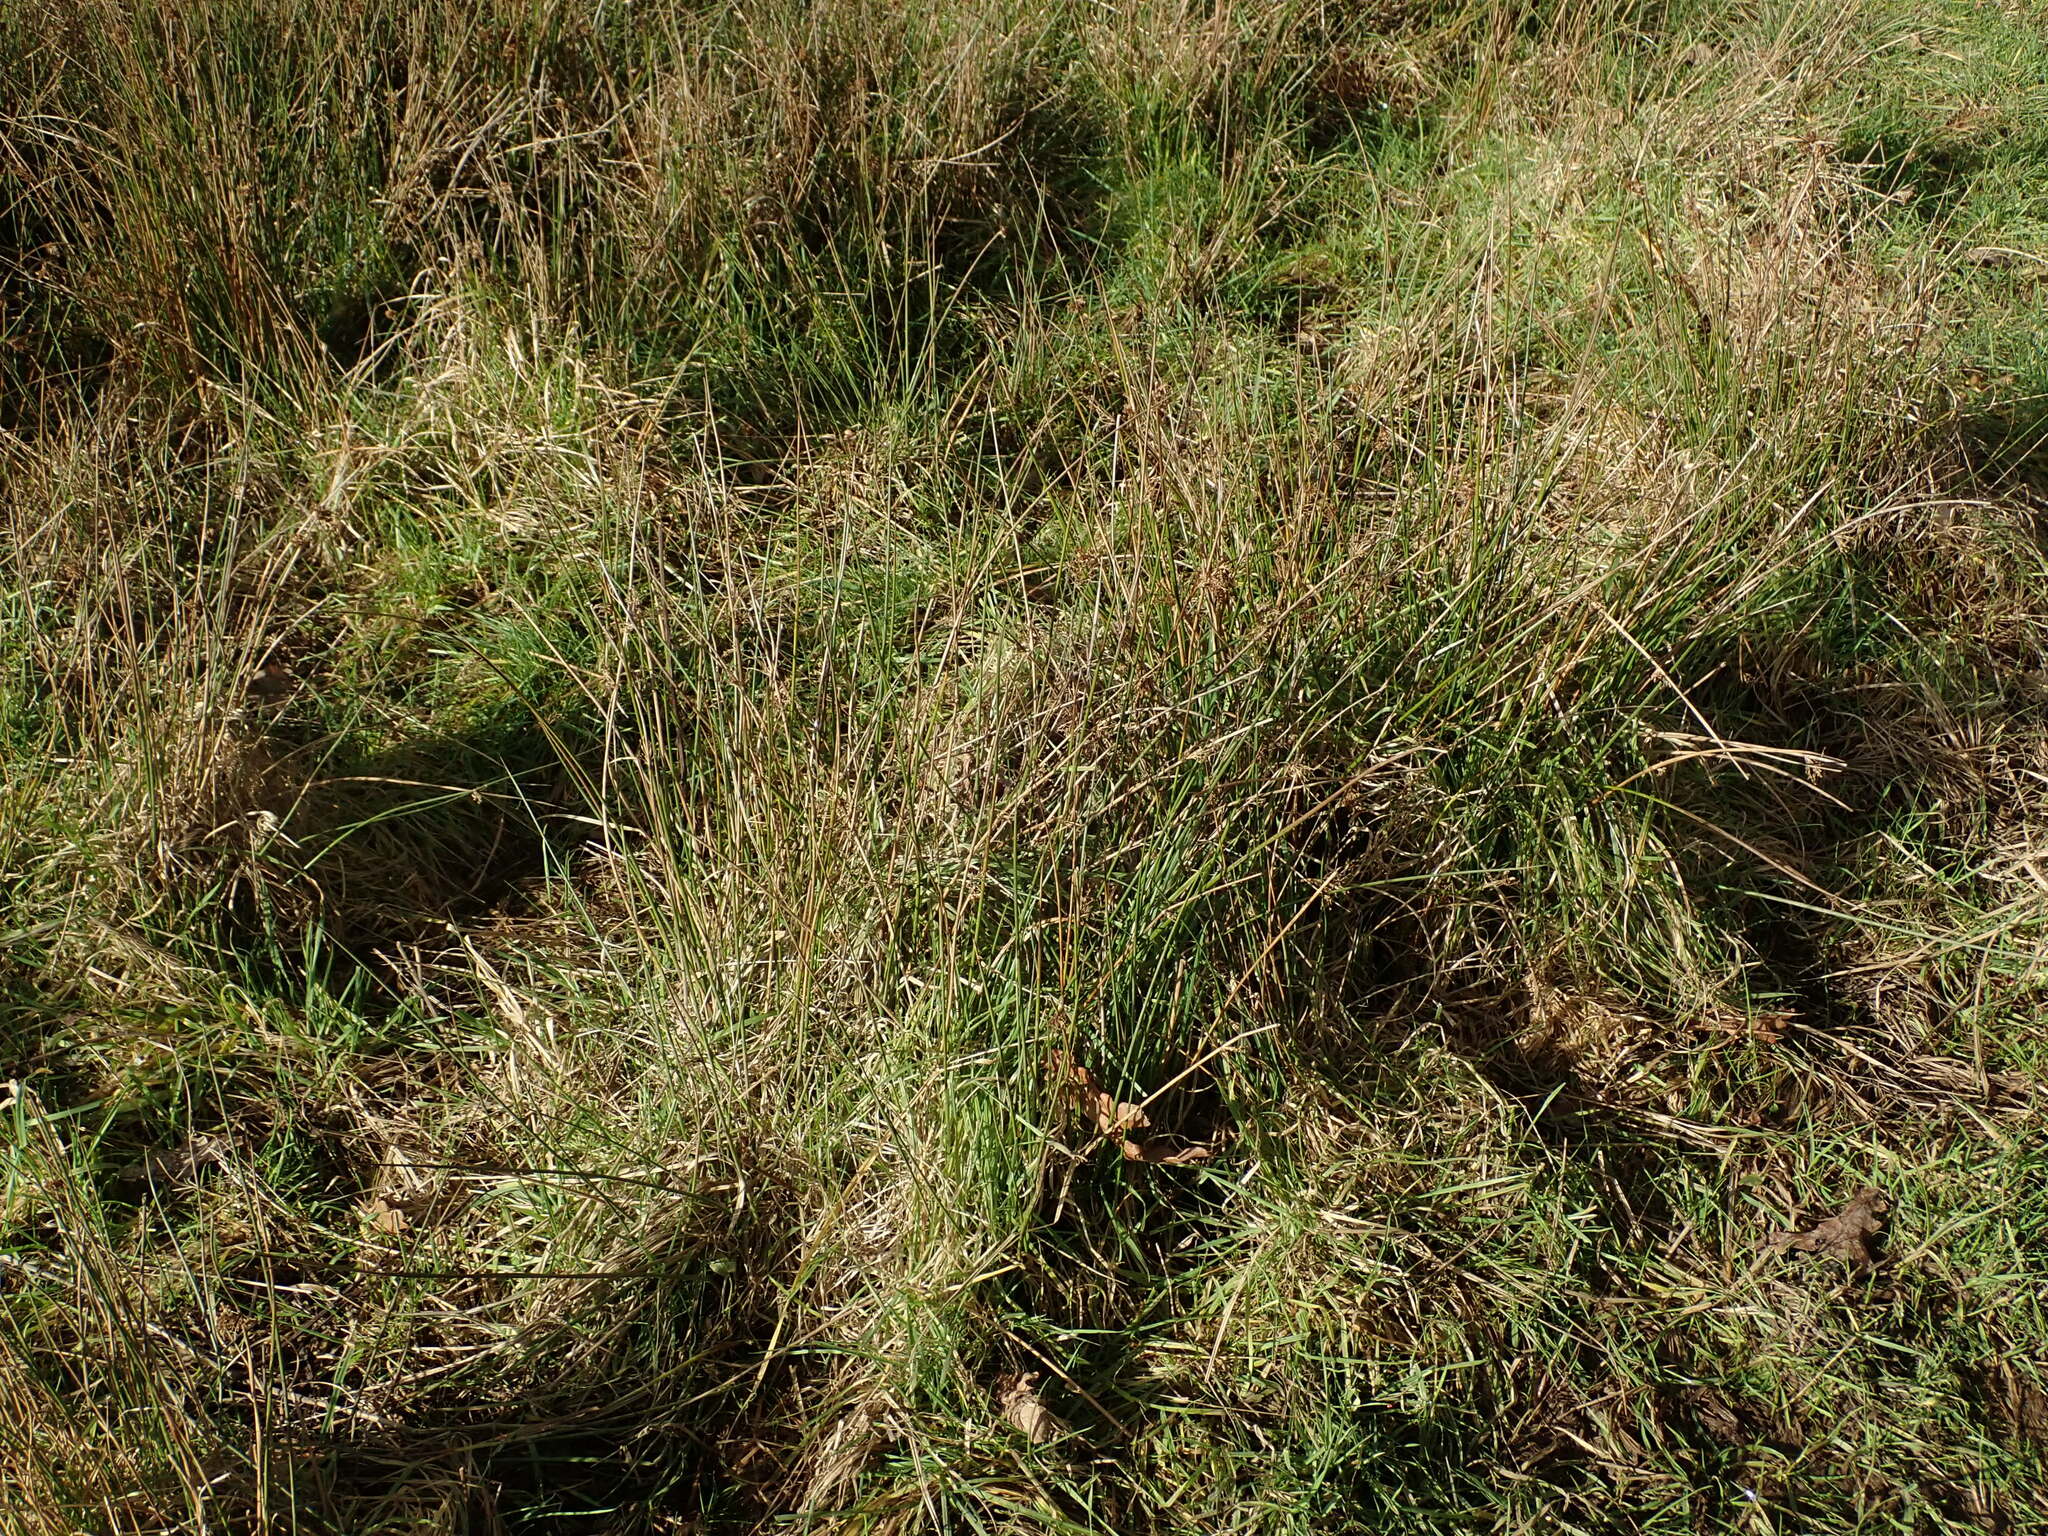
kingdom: Plantae
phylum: Tracheophyta
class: Liliopsida
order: Poales
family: Juncaceae
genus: Juncus
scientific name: Juncus effusus
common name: Soft rush
